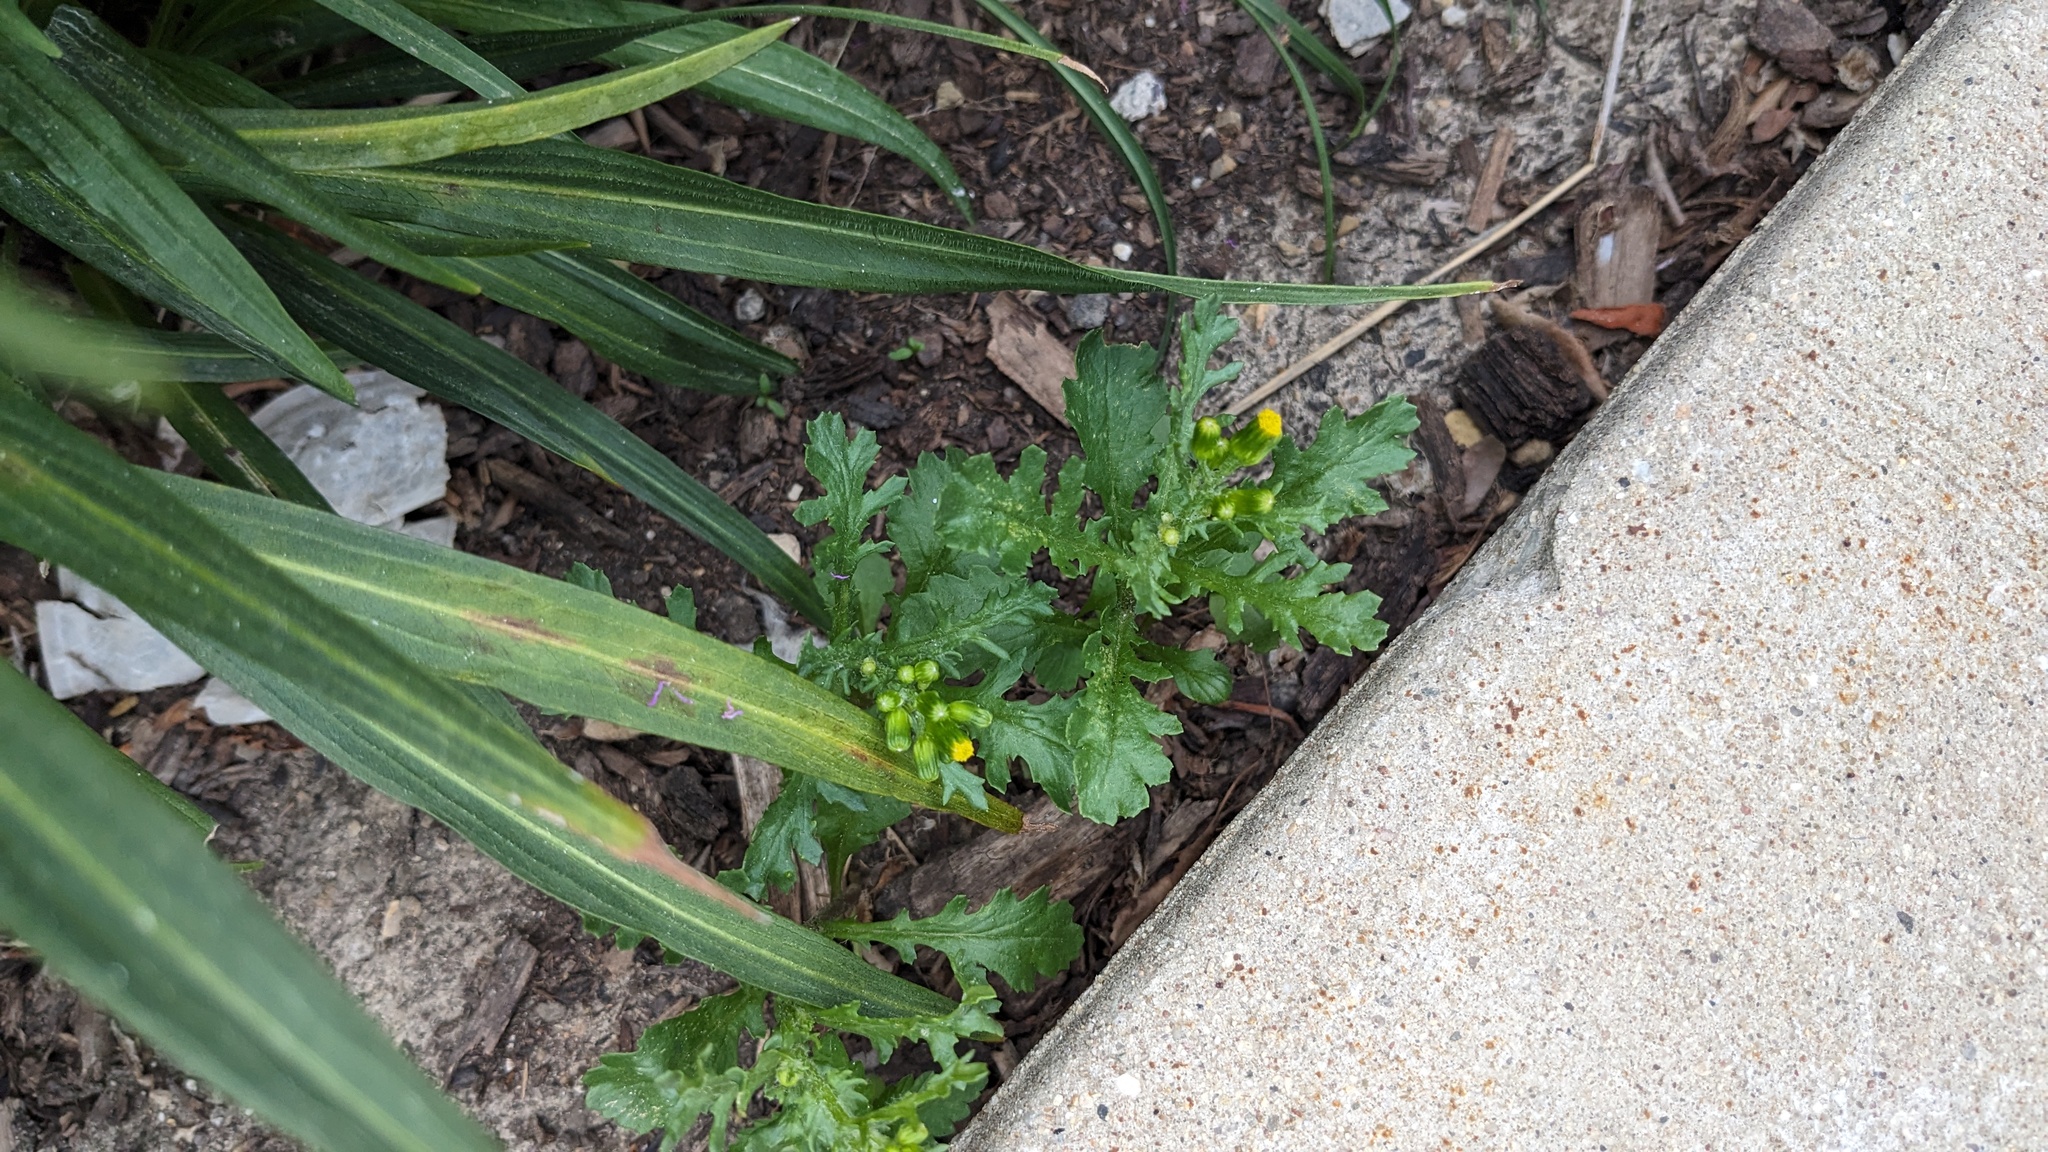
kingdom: Plantae
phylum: Tracheophyta
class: Magnoliopsida
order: Asterales
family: Asteraceae
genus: Senecio
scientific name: Senecio vulgaris
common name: Old-man-in-the-spring
